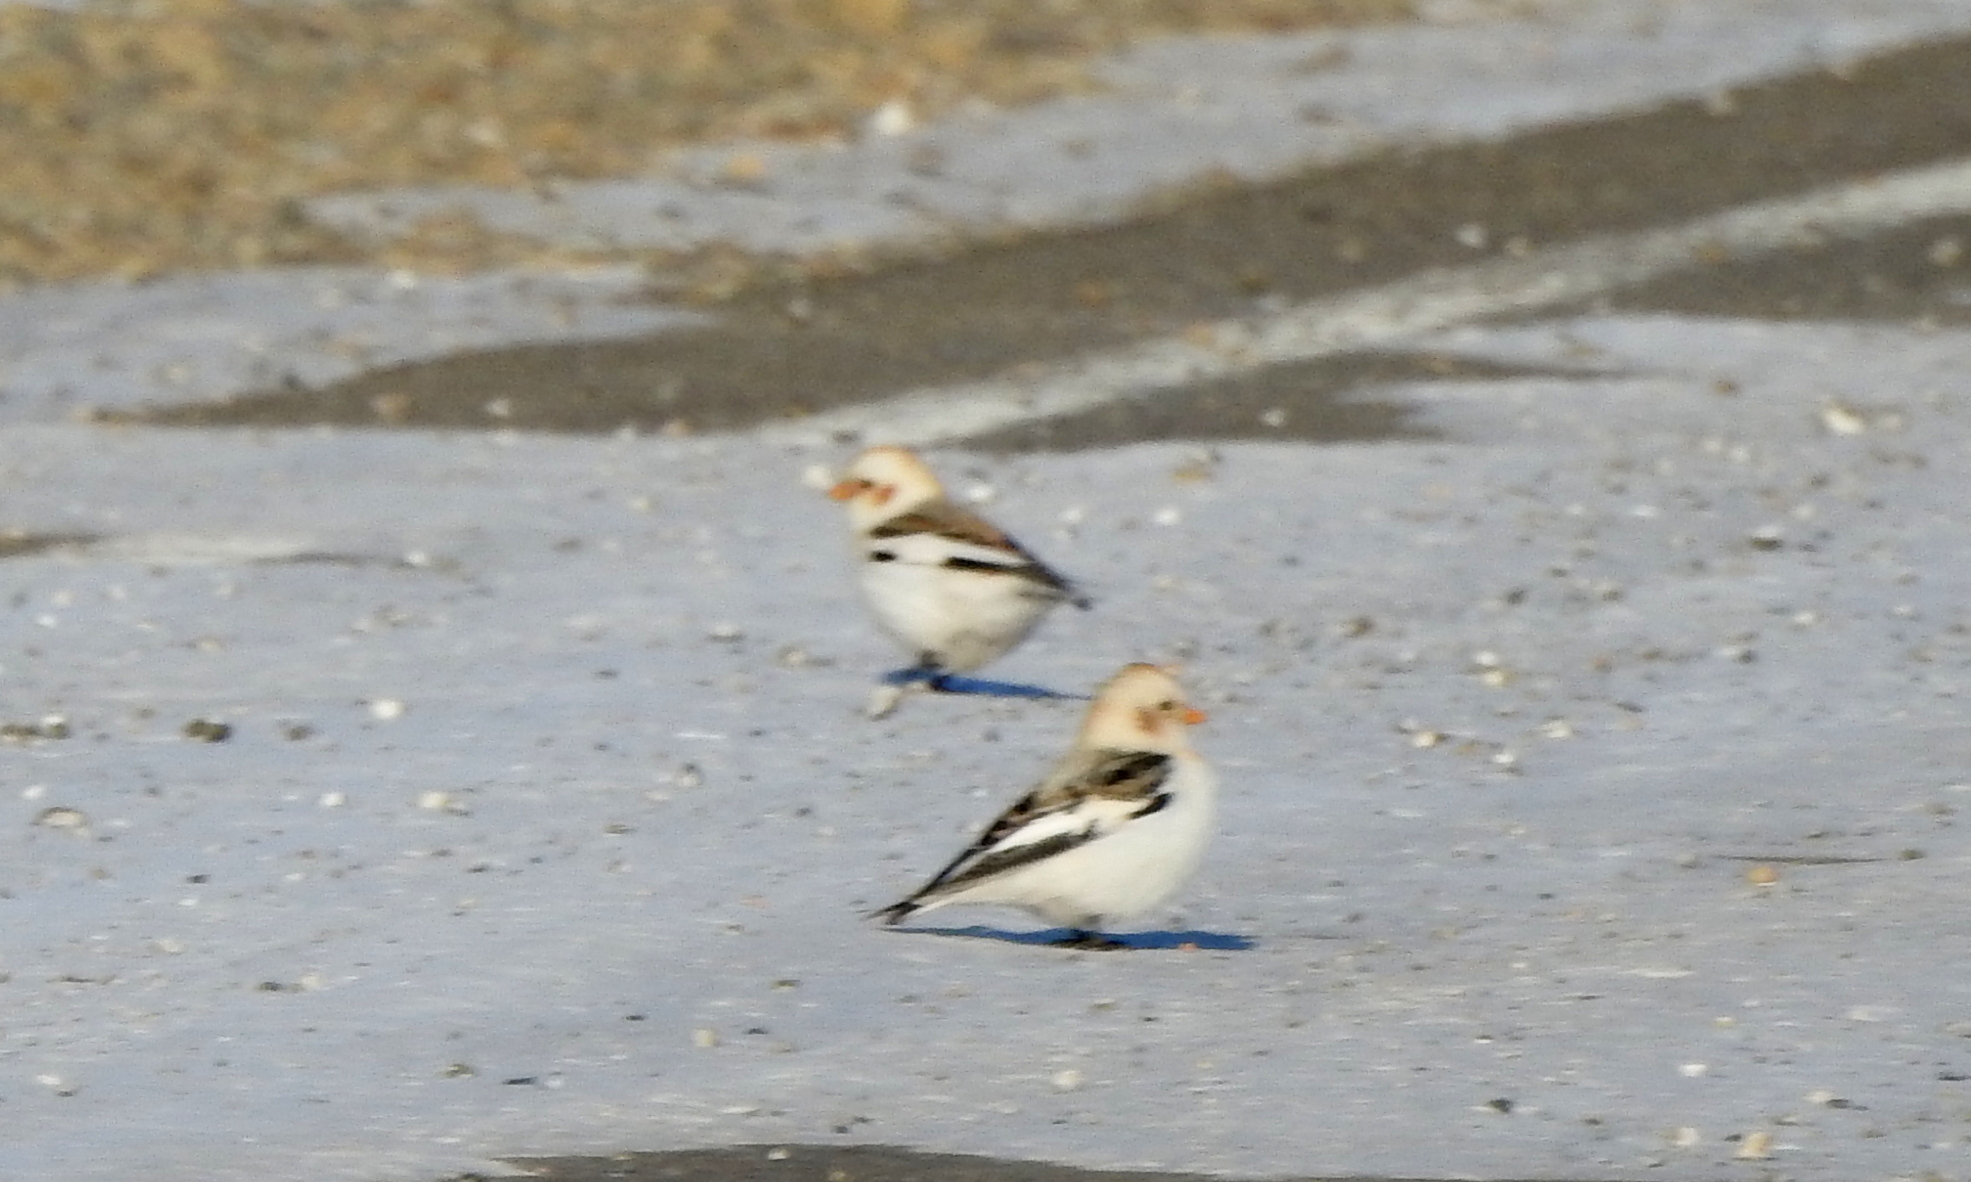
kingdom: Animalia
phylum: Chordata
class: Aves
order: Passeriformes
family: Calcariidae
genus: Plectrophenax
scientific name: Plectrophenax nivalis
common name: Snow bunting
